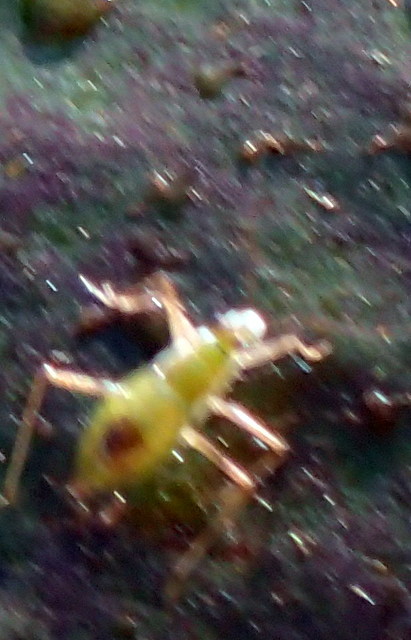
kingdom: Animalia
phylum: Arthropoda
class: Insecta
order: Hemiptera
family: Mesoveliidae
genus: Mesovelia
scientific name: Mesovelia
